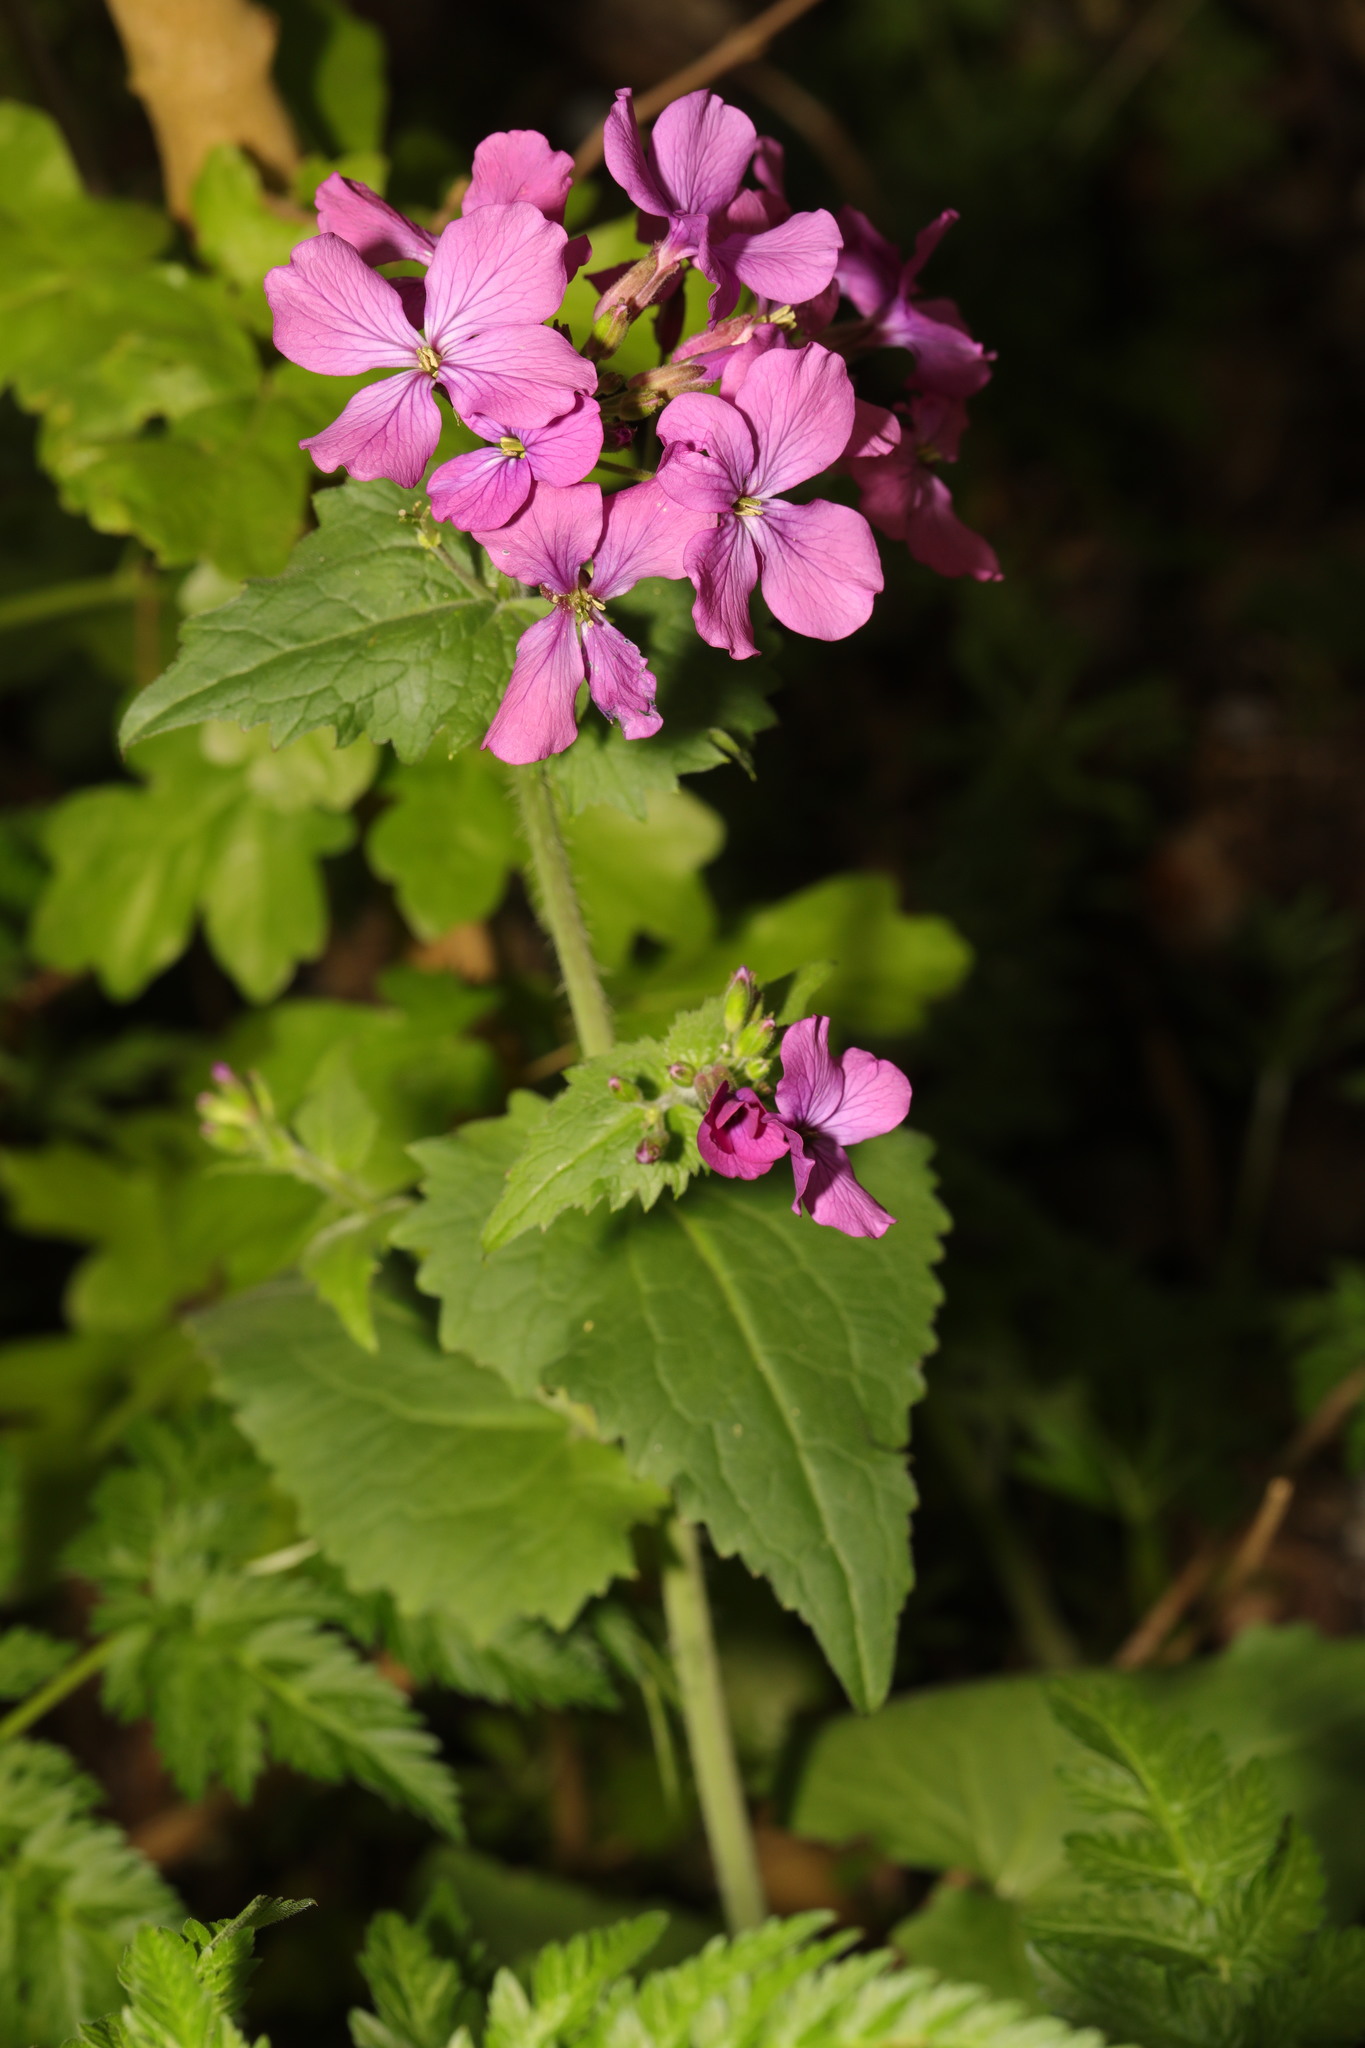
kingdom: Plantae
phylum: Tracheophyta
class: Magnoliopsida
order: Brassicales
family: Brassicaceae
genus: Lunaria
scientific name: Lunaria annua
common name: Honesty
